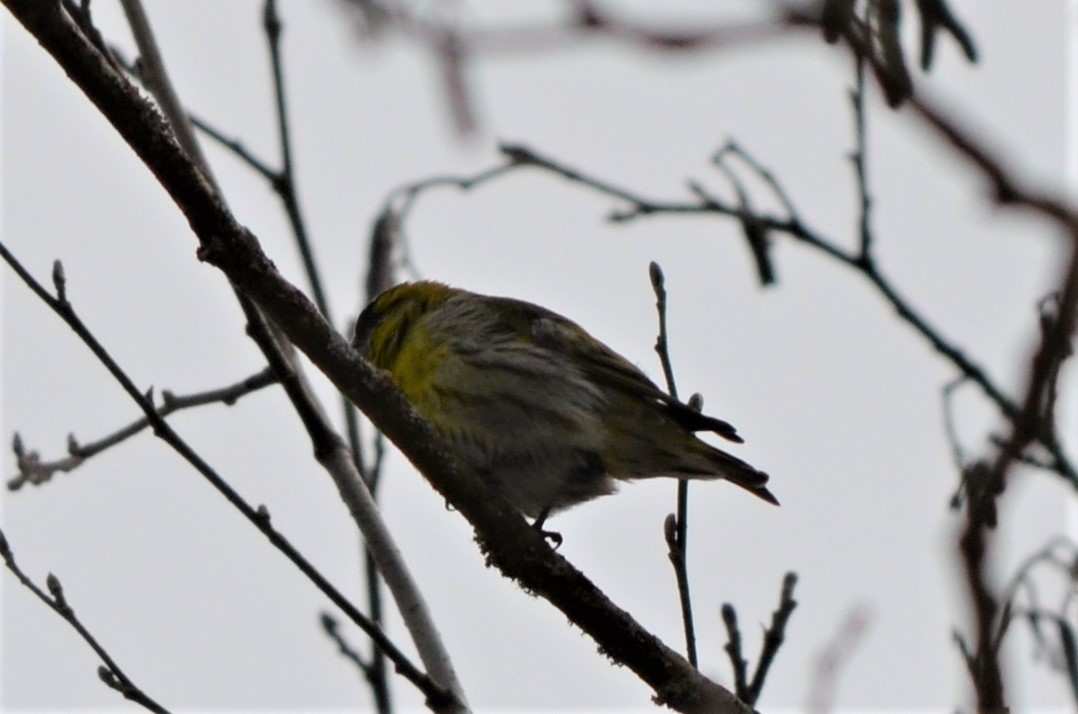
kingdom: Animalia
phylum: Chordata
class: Aves
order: Passeriformes
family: Fringillidae
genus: Spinus
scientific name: Spinus spinus
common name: Eurasian siskin
